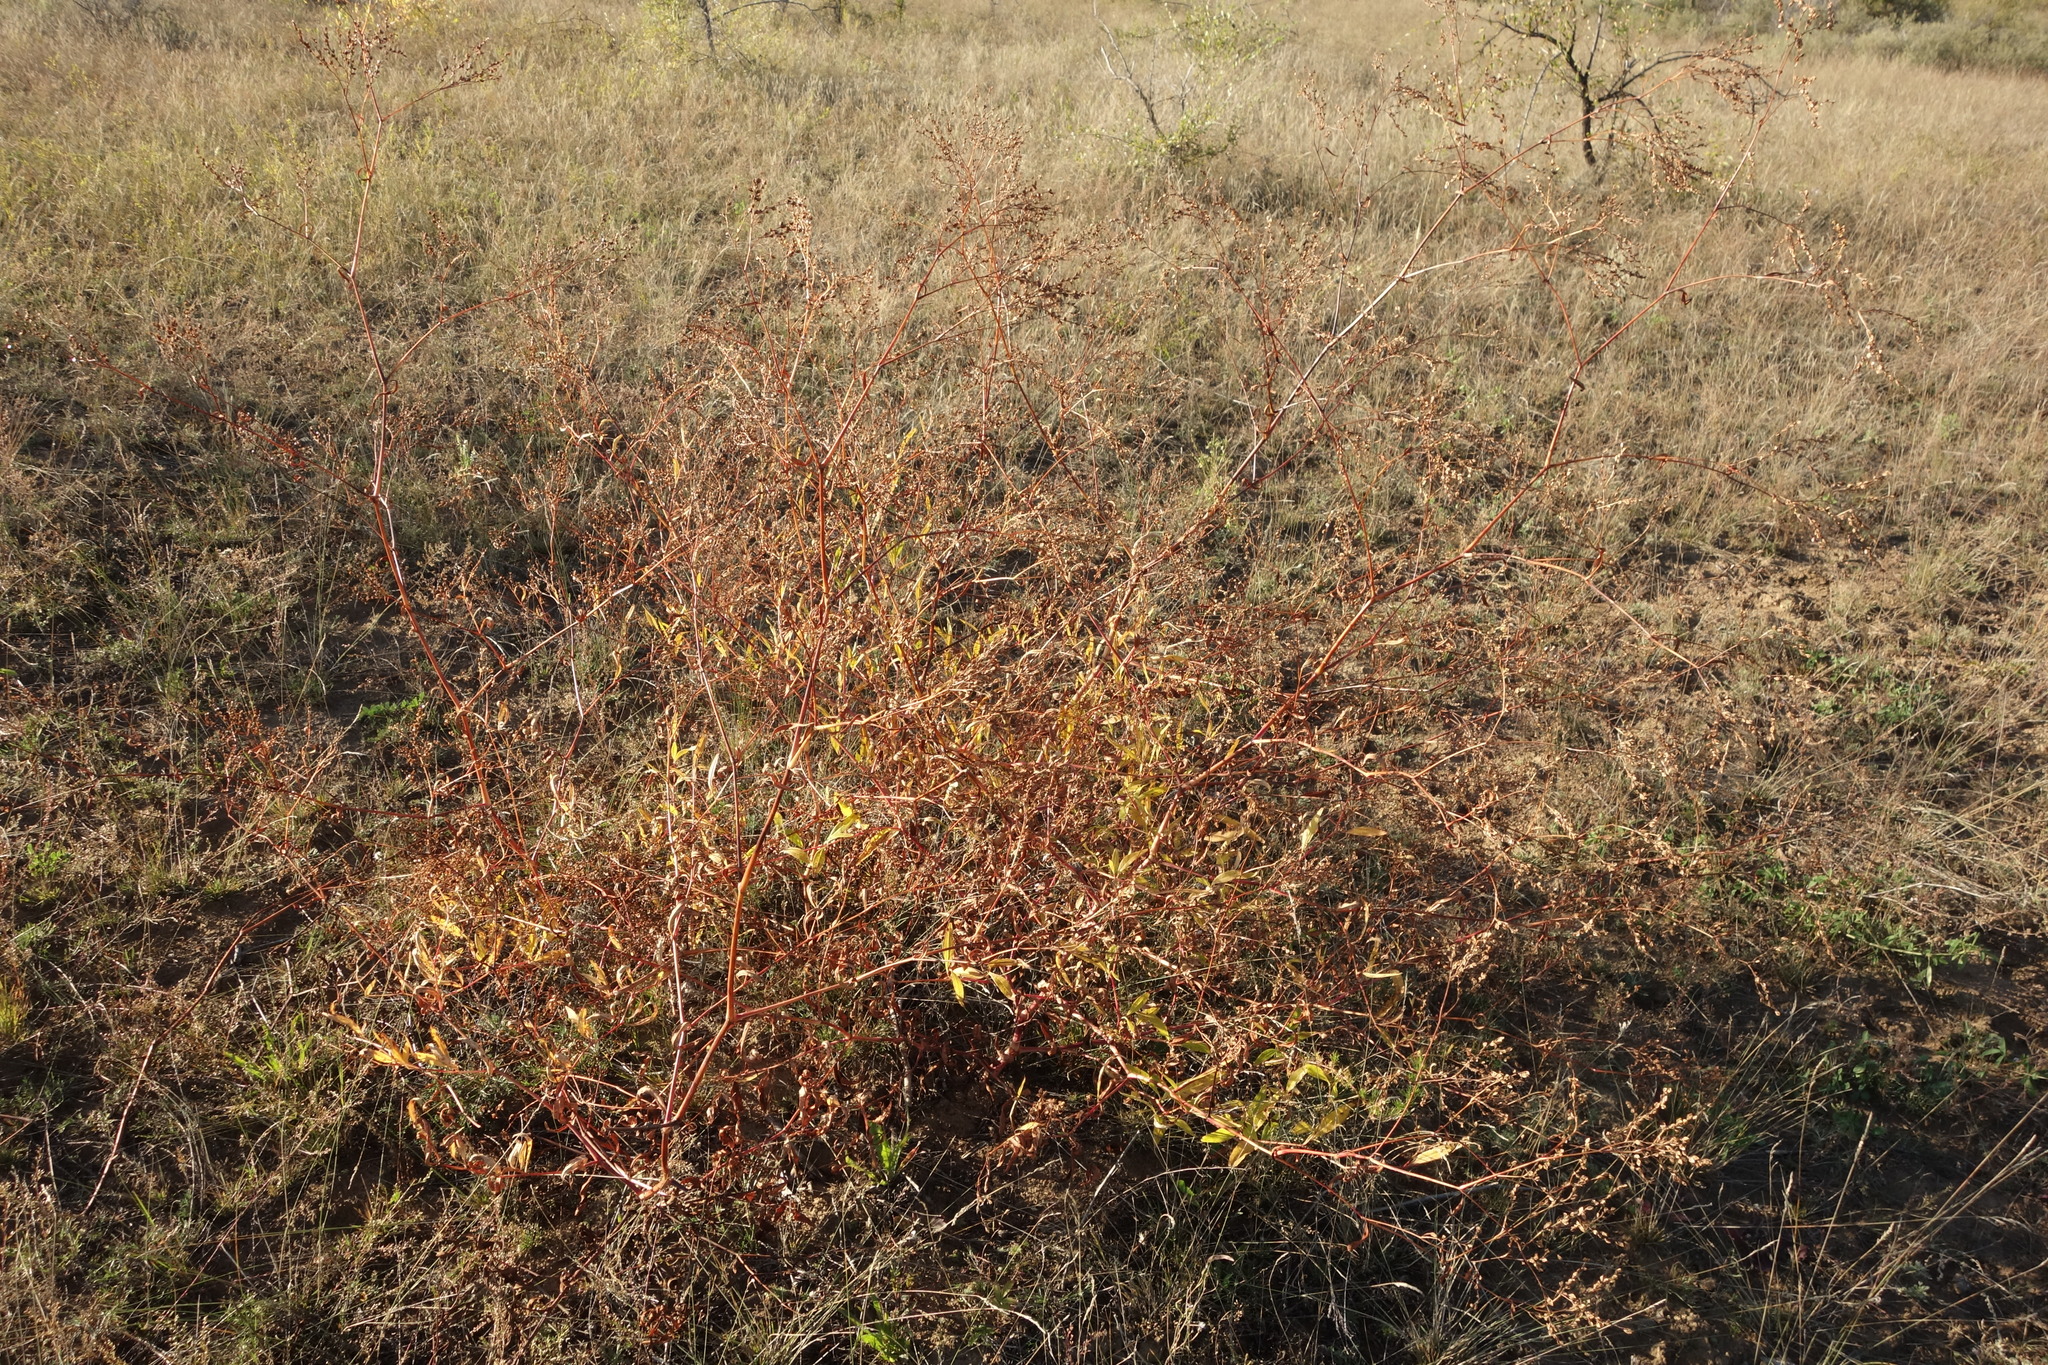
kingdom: Plantae
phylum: Tracheophyta
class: Magnoliopsida
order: Caryophyllales
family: Polygonaceae
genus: Koenigia
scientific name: Koenigia divaricata
